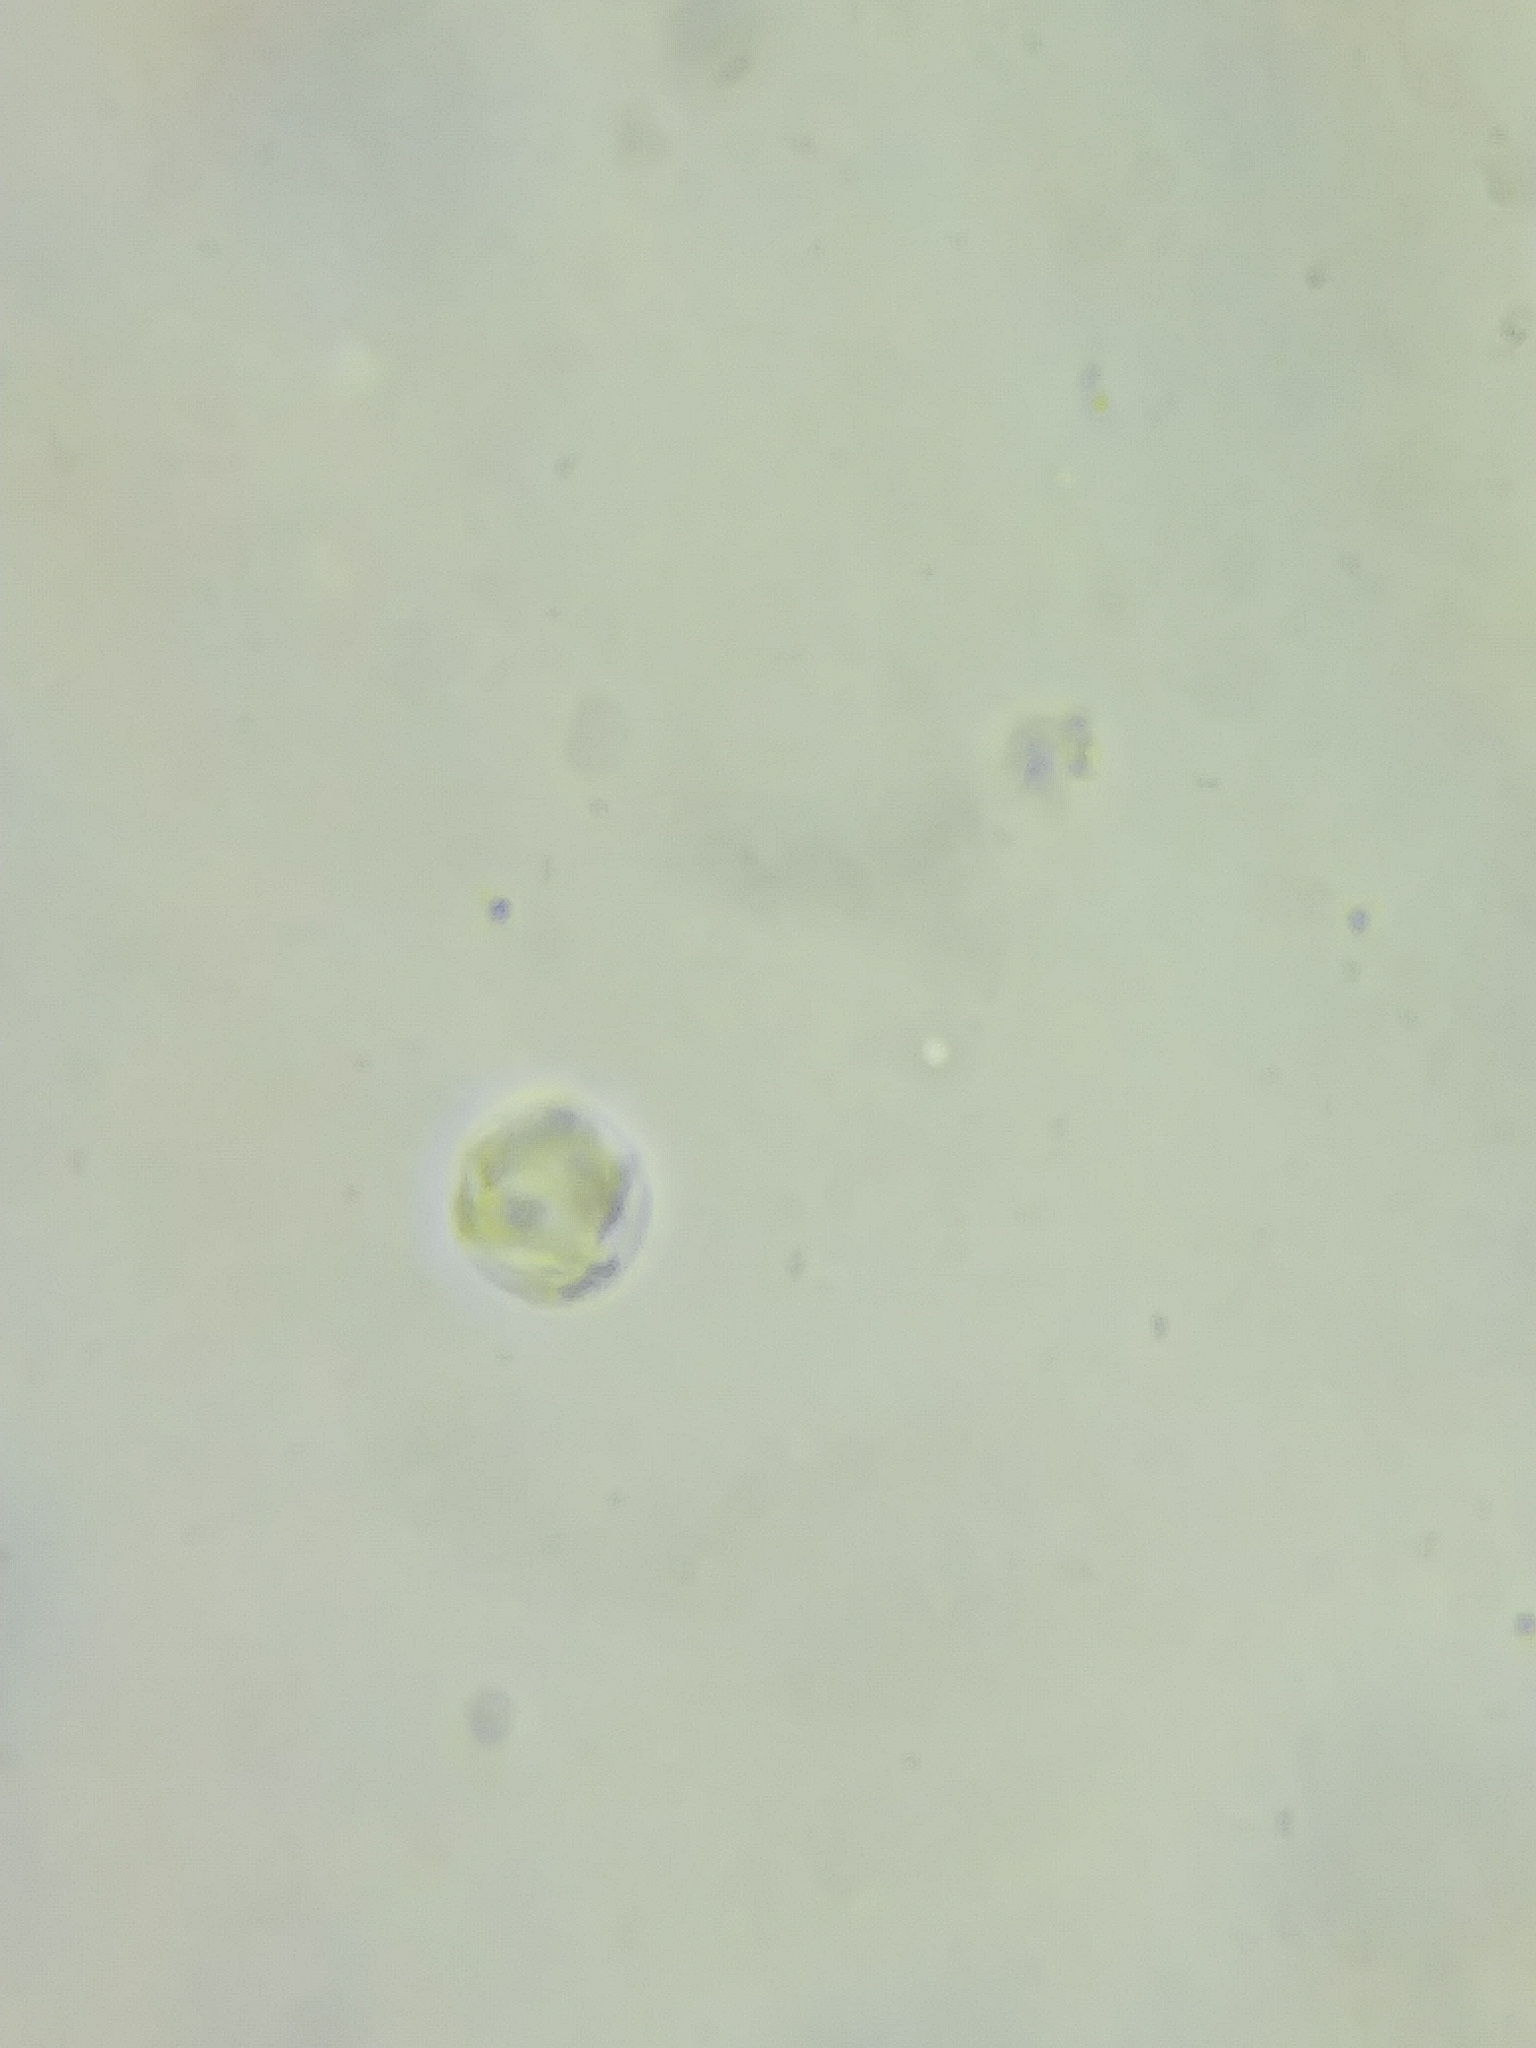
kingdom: Fungi
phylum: Basidiomycota
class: Agaricomycetes
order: Agaricales
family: Clavariaceae
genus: Clavulinopsis
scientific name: Clavulinopsis appalachiensis
